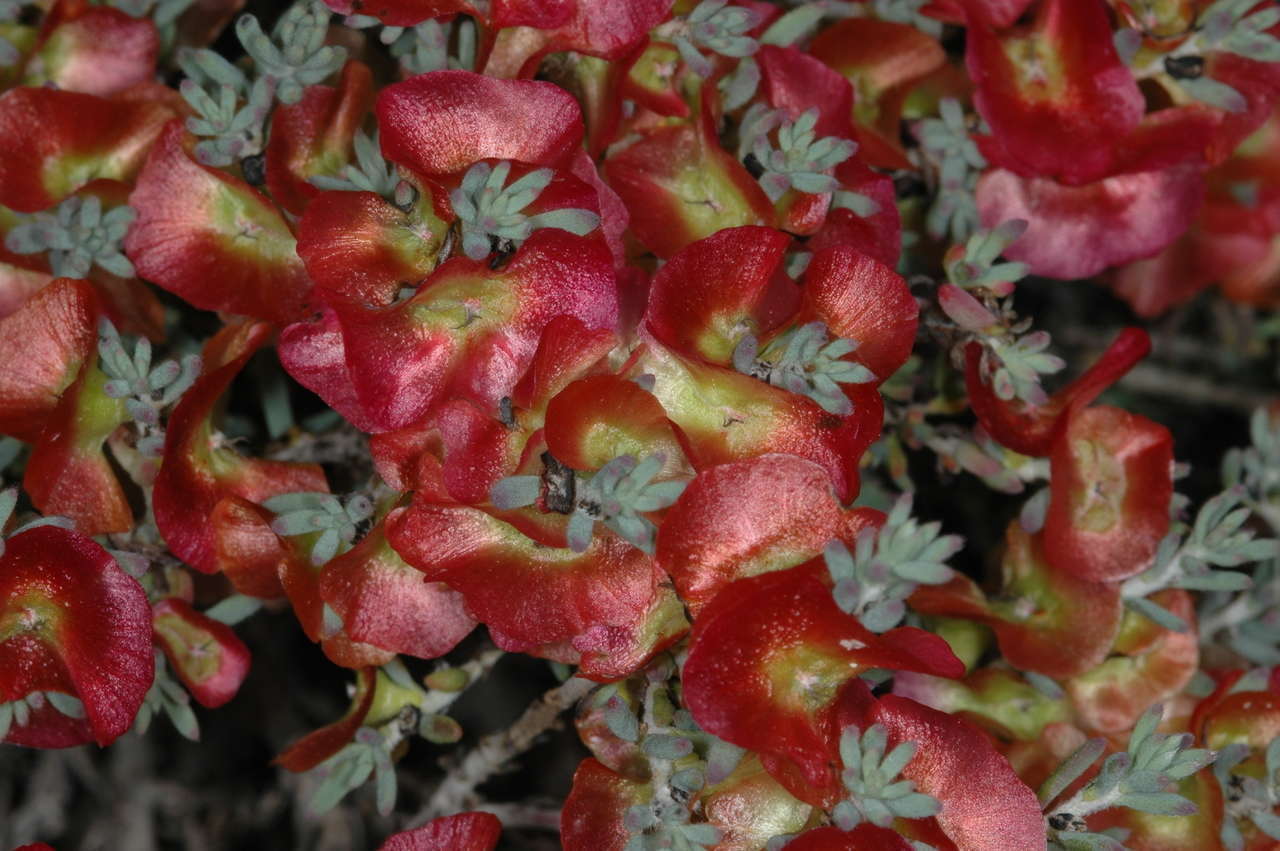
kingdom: Plantae
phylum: Tracheophyta
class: Magnoliopsida
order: Caryophyllales
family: Amaranthaceae
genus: Maireana
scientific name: Maireana turbinata
